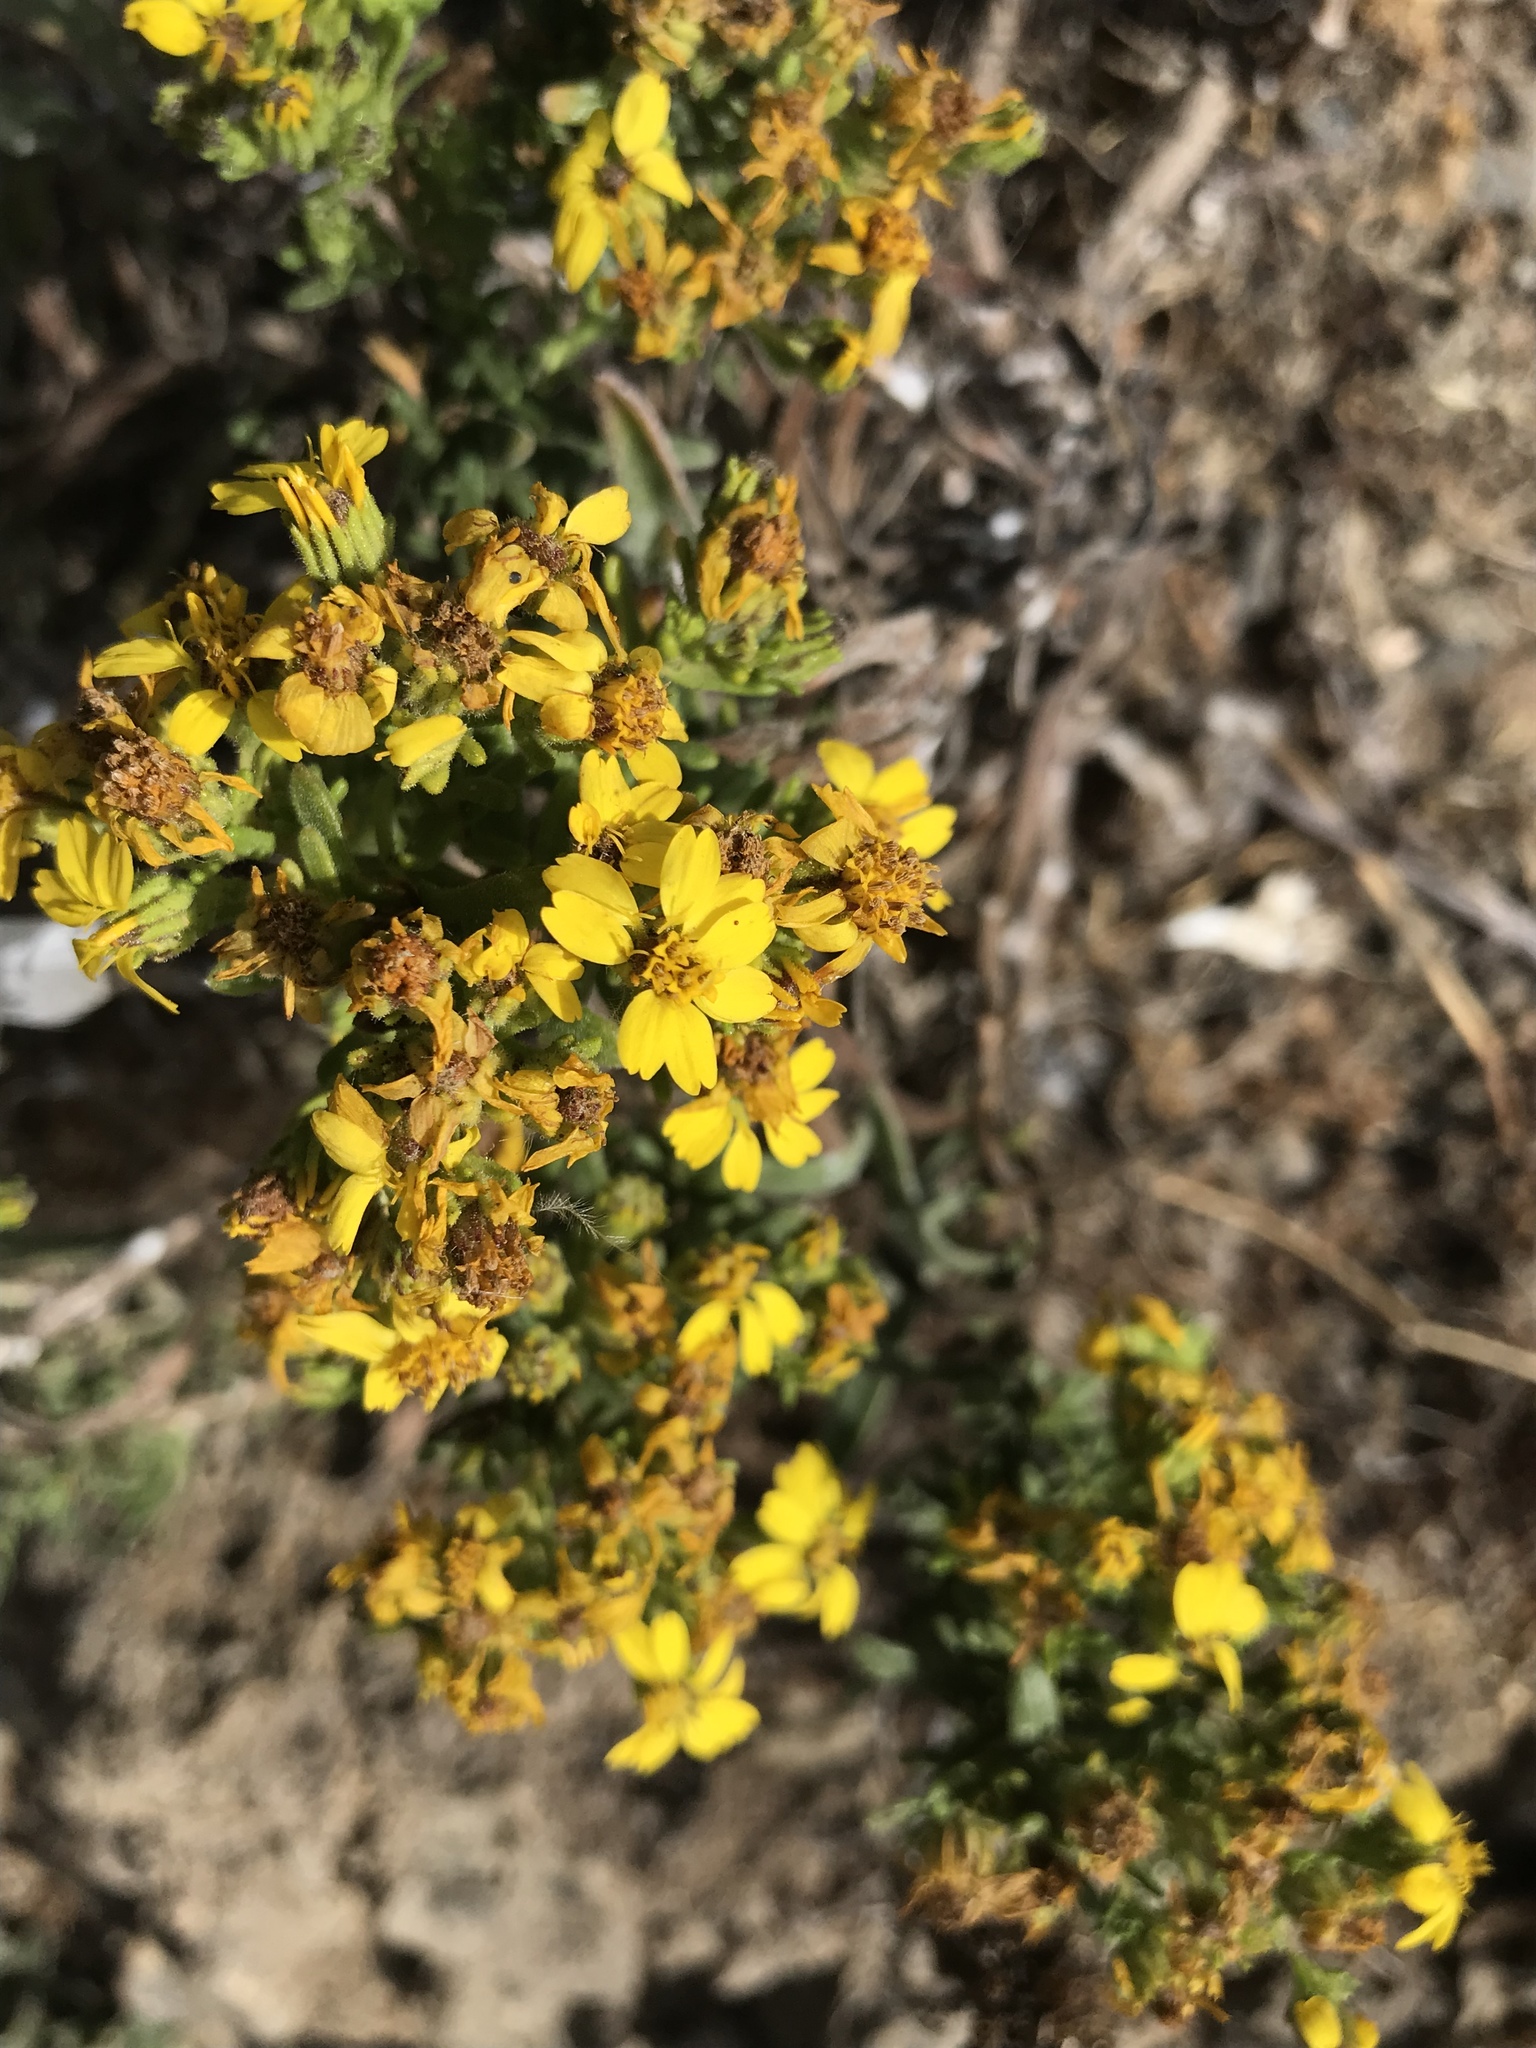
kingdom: Plantae
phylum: Tracheophyta
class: Magnoliopsida
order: Asterales
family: Asteraceae
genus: Deinandra
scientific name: Deinandra clementina
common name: Island tarplant
